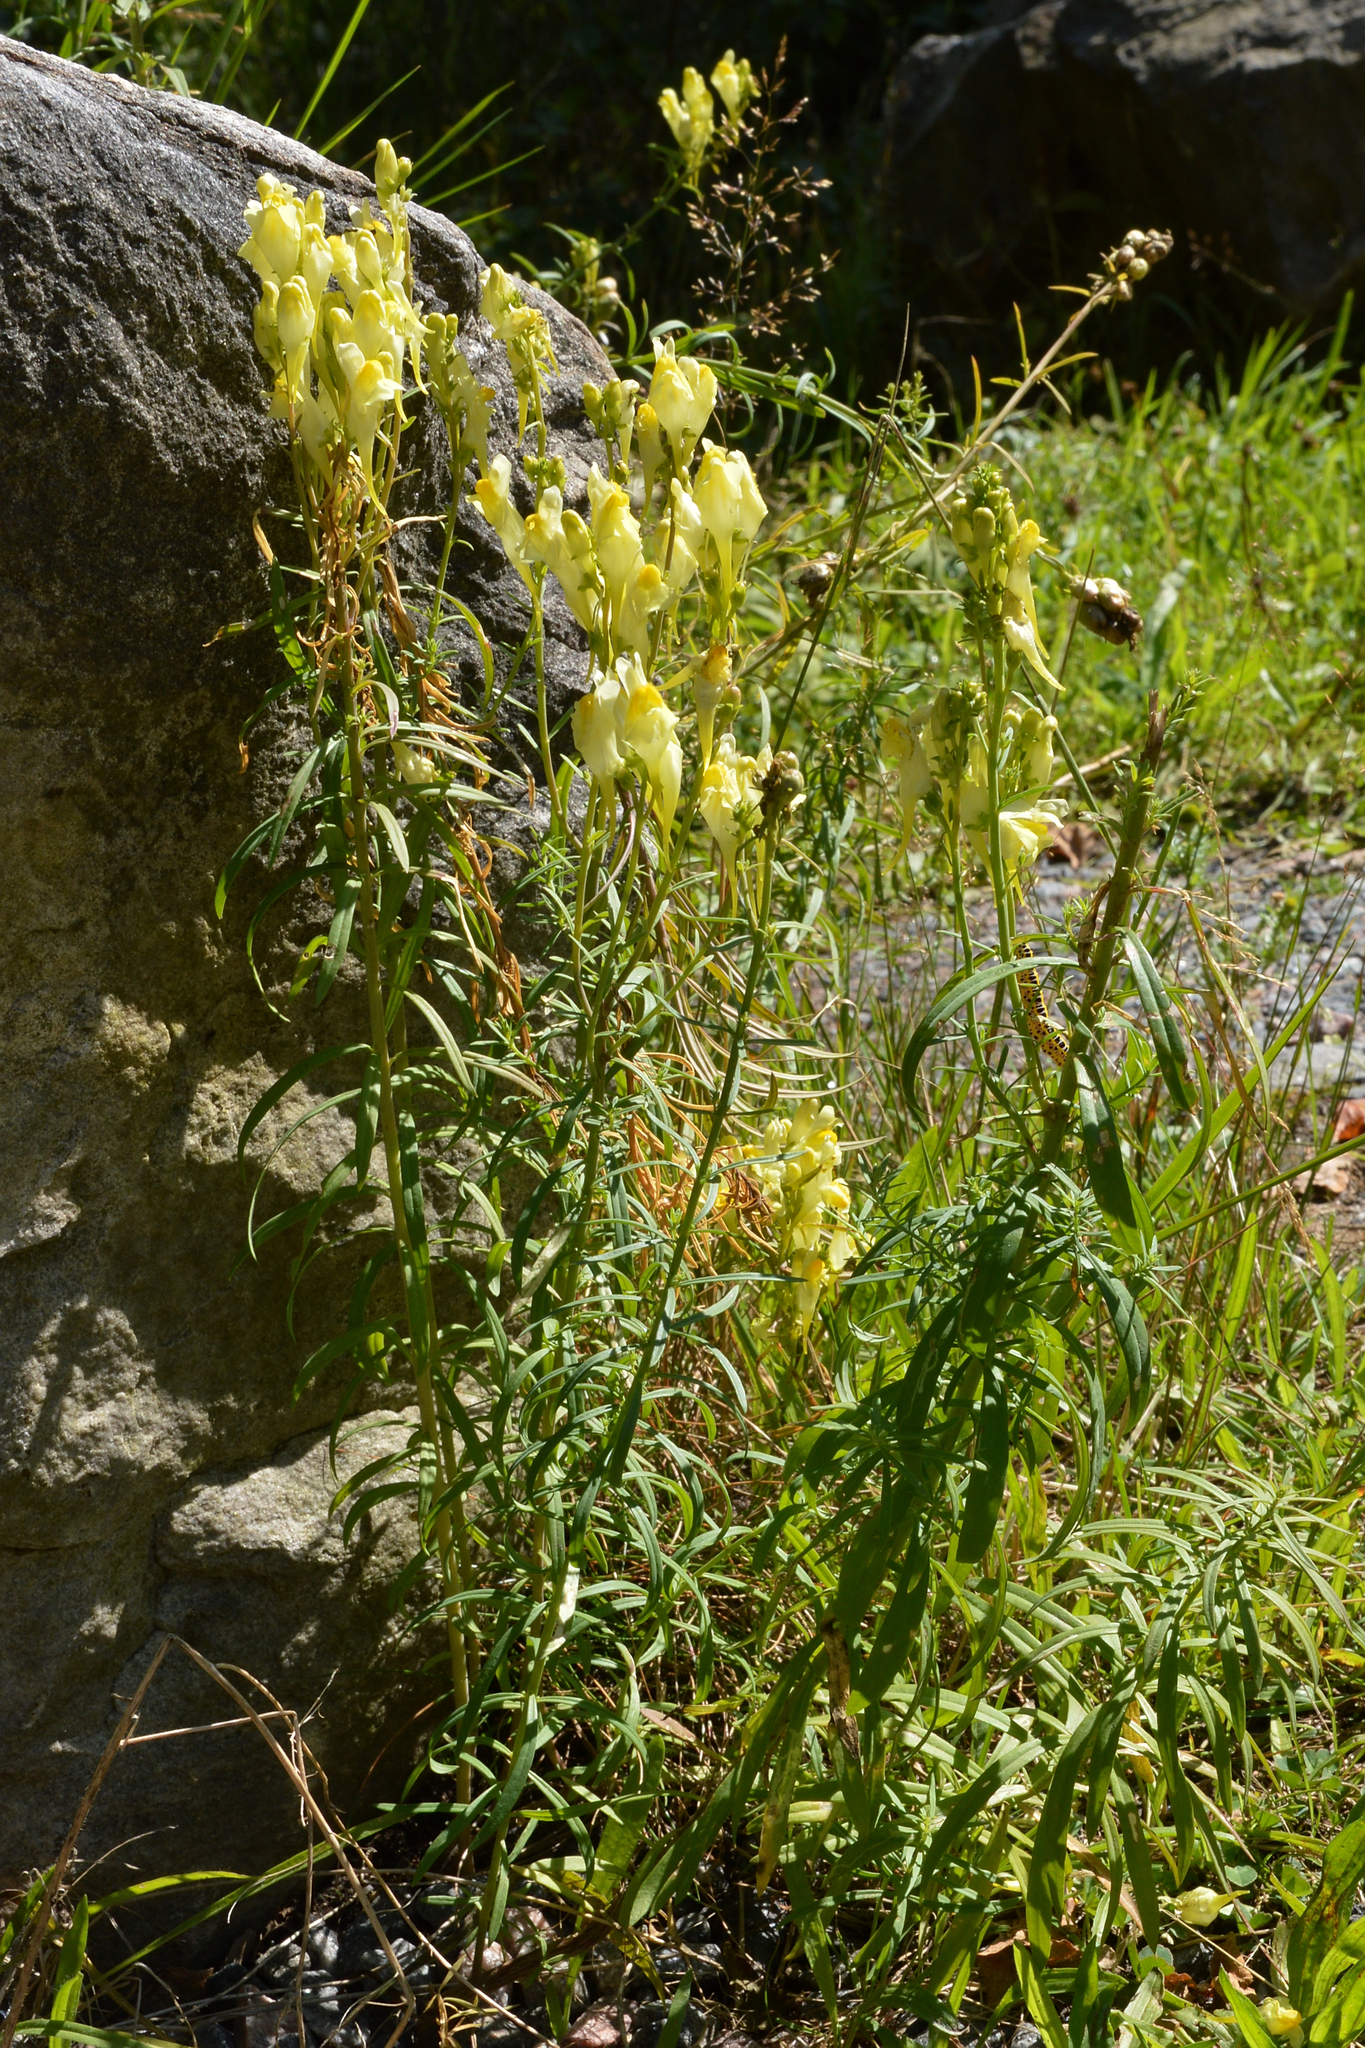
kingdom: Plantae
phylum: Tracheophyta
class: Magnoliopsida
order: Lamiales
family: Plantaginaceae
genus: Linaria
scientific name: Linaria vulgaris
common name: Butter and eggs
